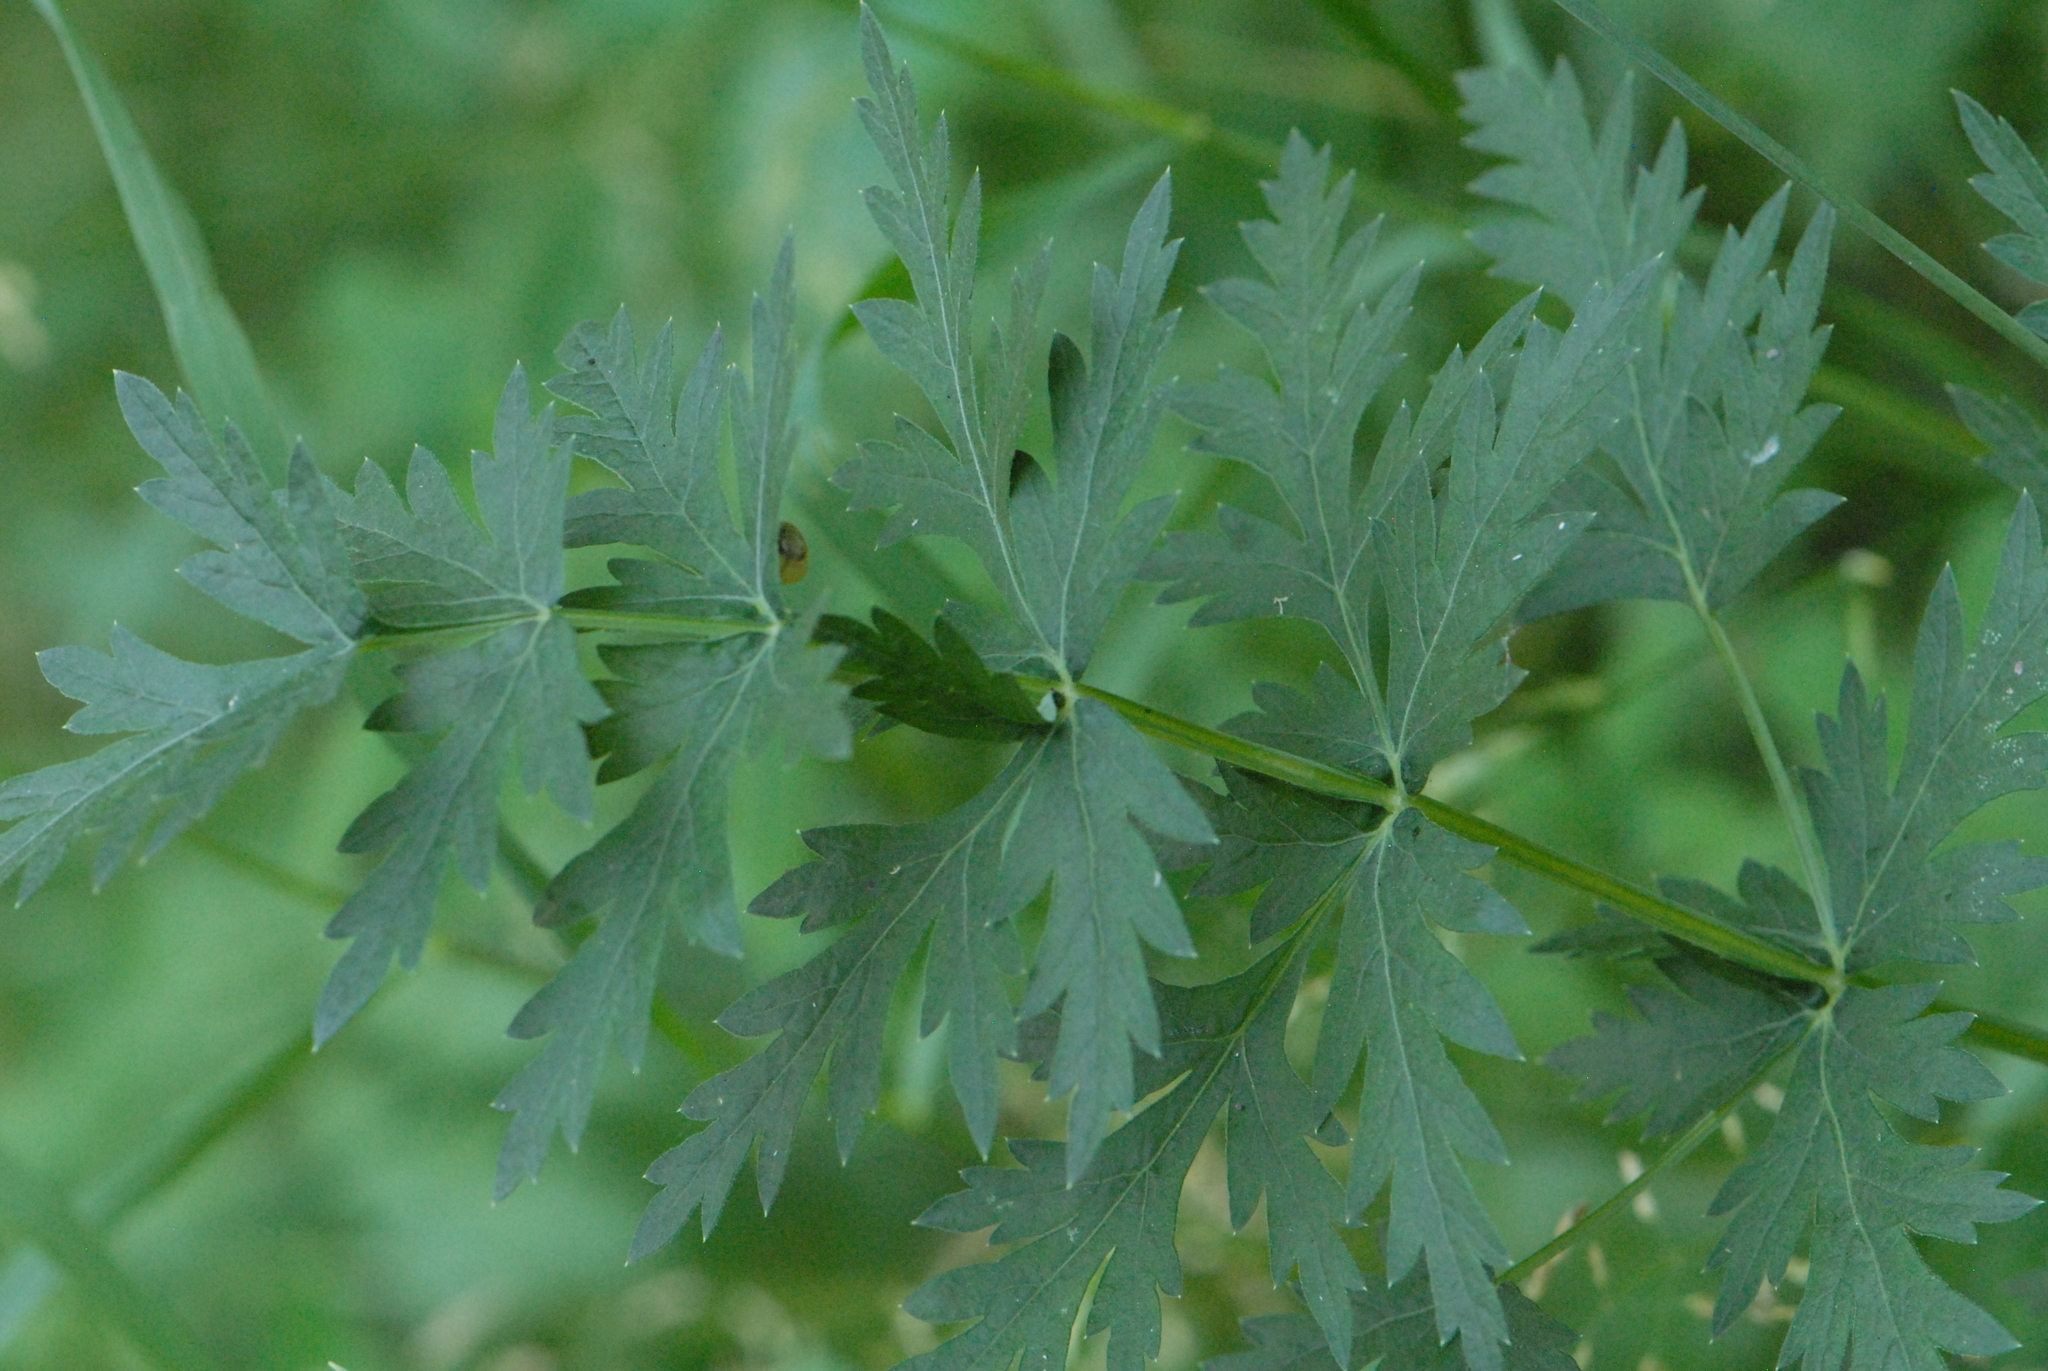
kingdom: Plantae
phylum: Tracheophyta
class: Magnoliopsida
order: Apiales
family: Apiaceae
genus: Seseli
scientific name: Seseli libanotis
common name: Mooncarrot
